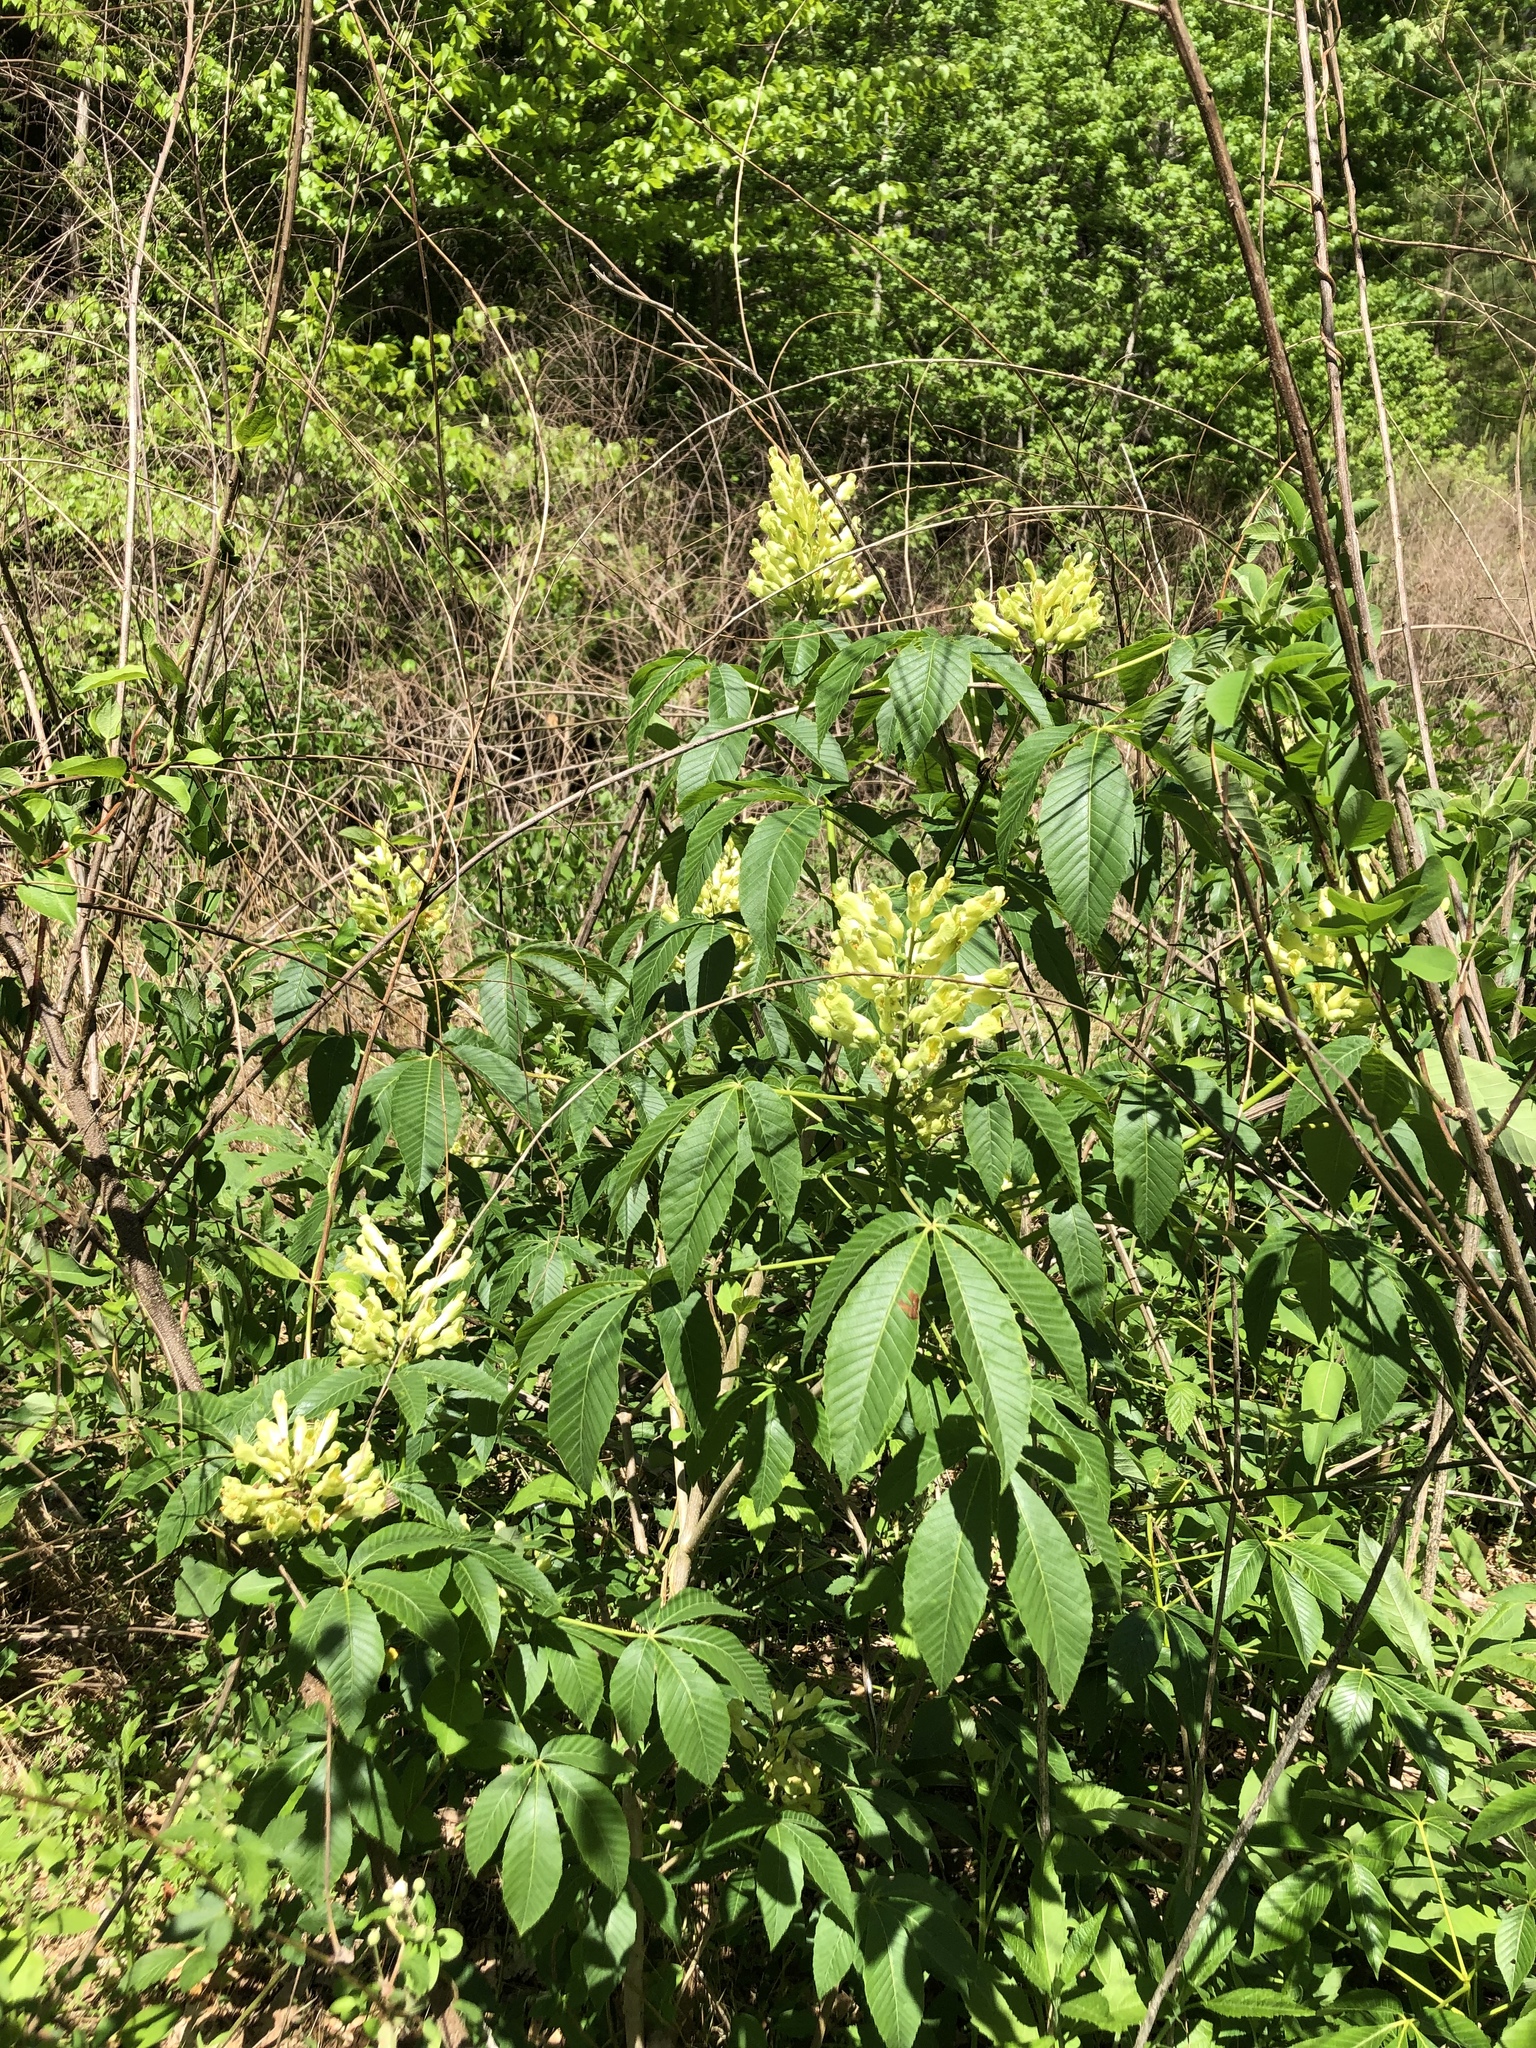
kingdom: Plantae
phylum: Tracheophyta
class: Magnoliopsida
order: Sapindales
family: Sapindaceae
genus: Aesculus
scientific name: Aesculus sylvatica
